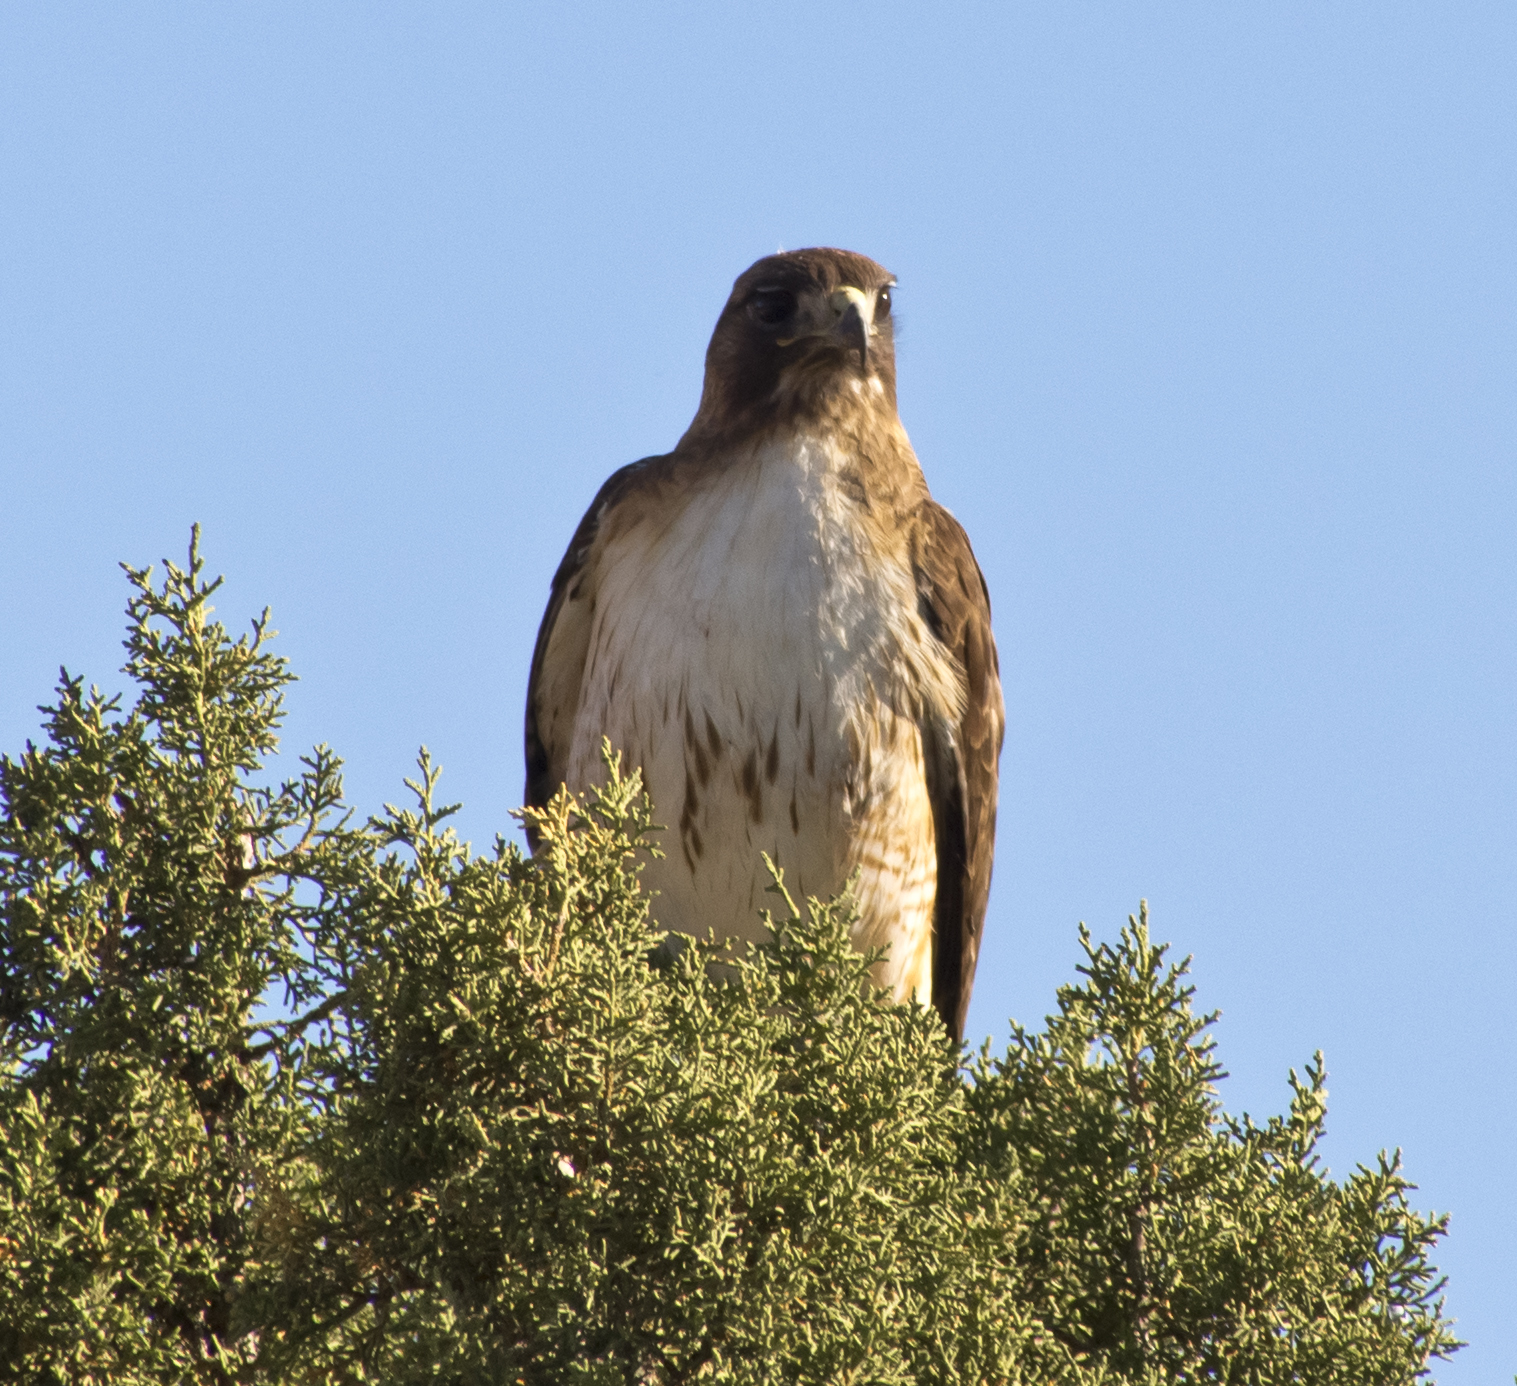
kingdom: Animalia
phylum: Chordata
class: Aves
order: Accipitriformes
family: Accipitridae
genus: Buteo
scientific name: Buteo jamaicensis
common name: Red-tailed hawk
